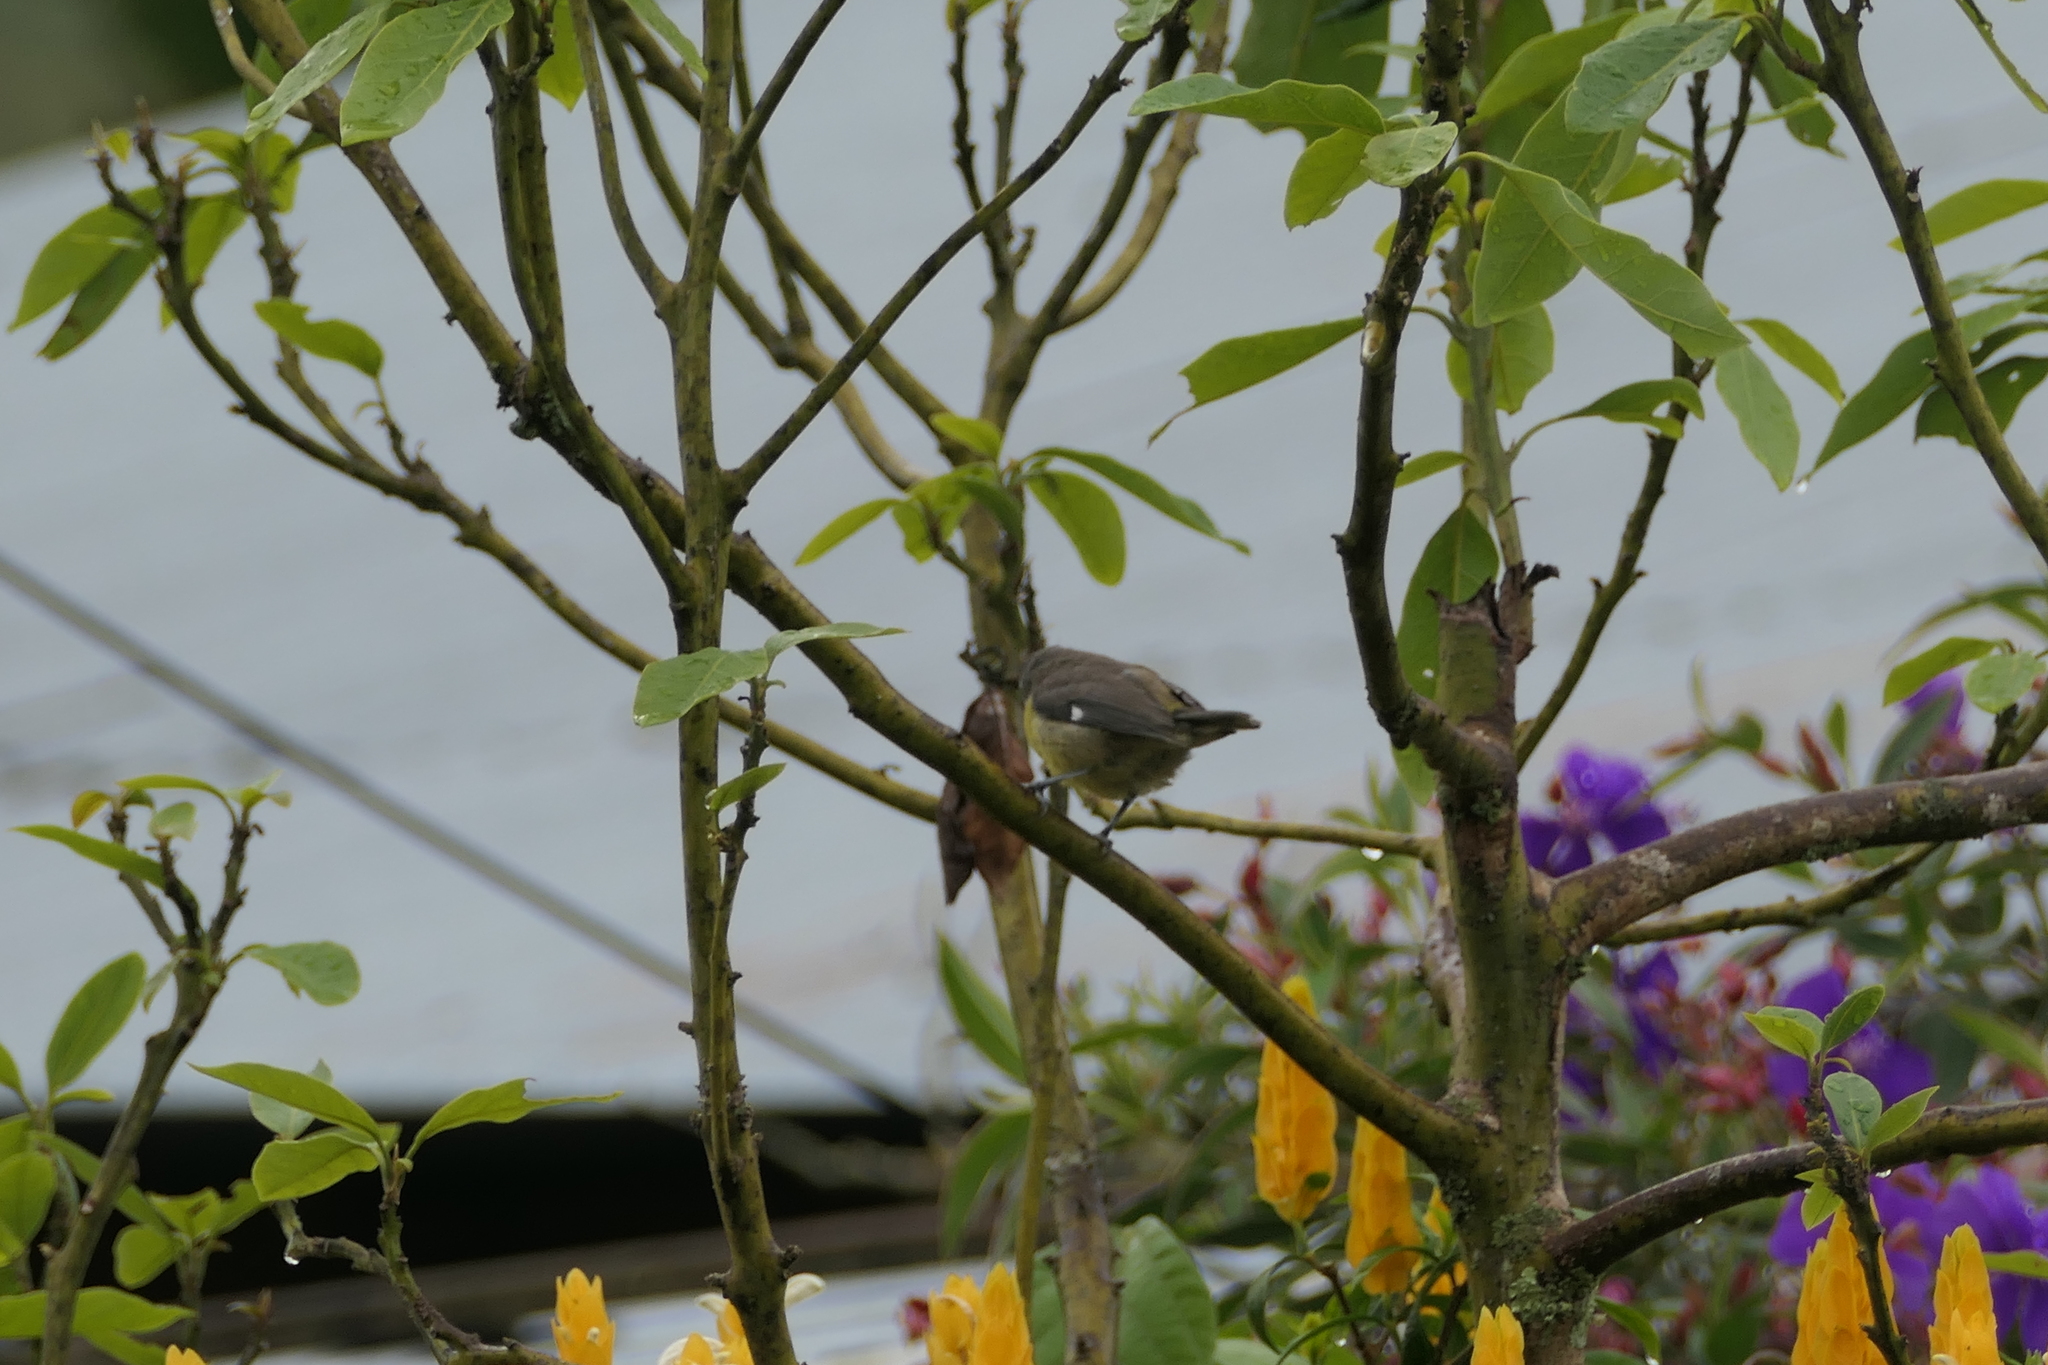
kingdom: Animalia
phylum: Chordata
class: Aves
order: Passeriformes
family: Thraupidae
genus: Coereba
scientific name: Coereba flaveola
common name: Bananaquit
